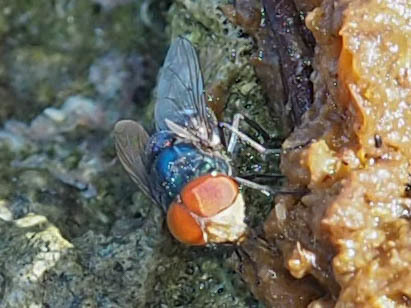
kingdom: Animalia
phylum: Arthropoda
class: Insecta
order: Diptera
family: Calliphoridae
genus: Chrysomya
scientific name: Chrysomya megacephala
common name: Blow fly
